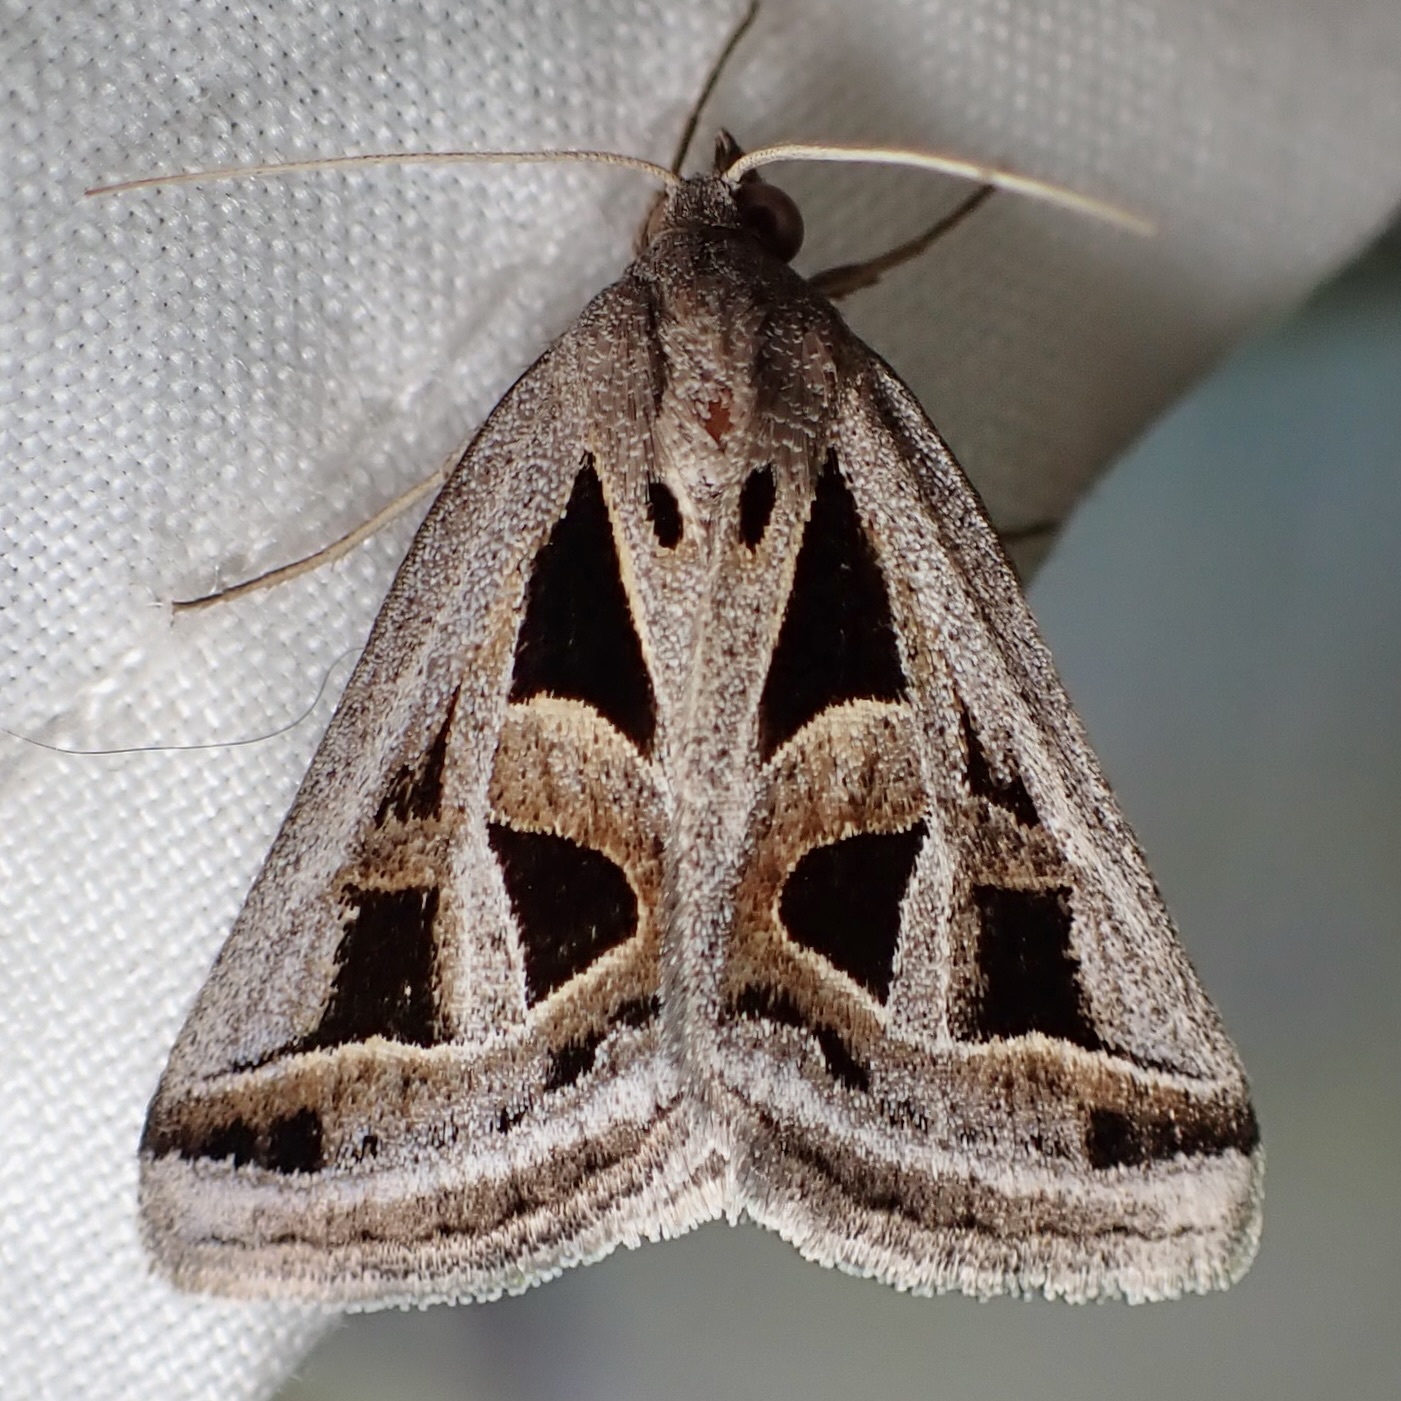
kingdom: Animalia
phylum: Arthropoda
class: Insecta
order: Lepidoptera
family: Erebidae
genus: Callistege
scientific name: Callistege diagonalis
